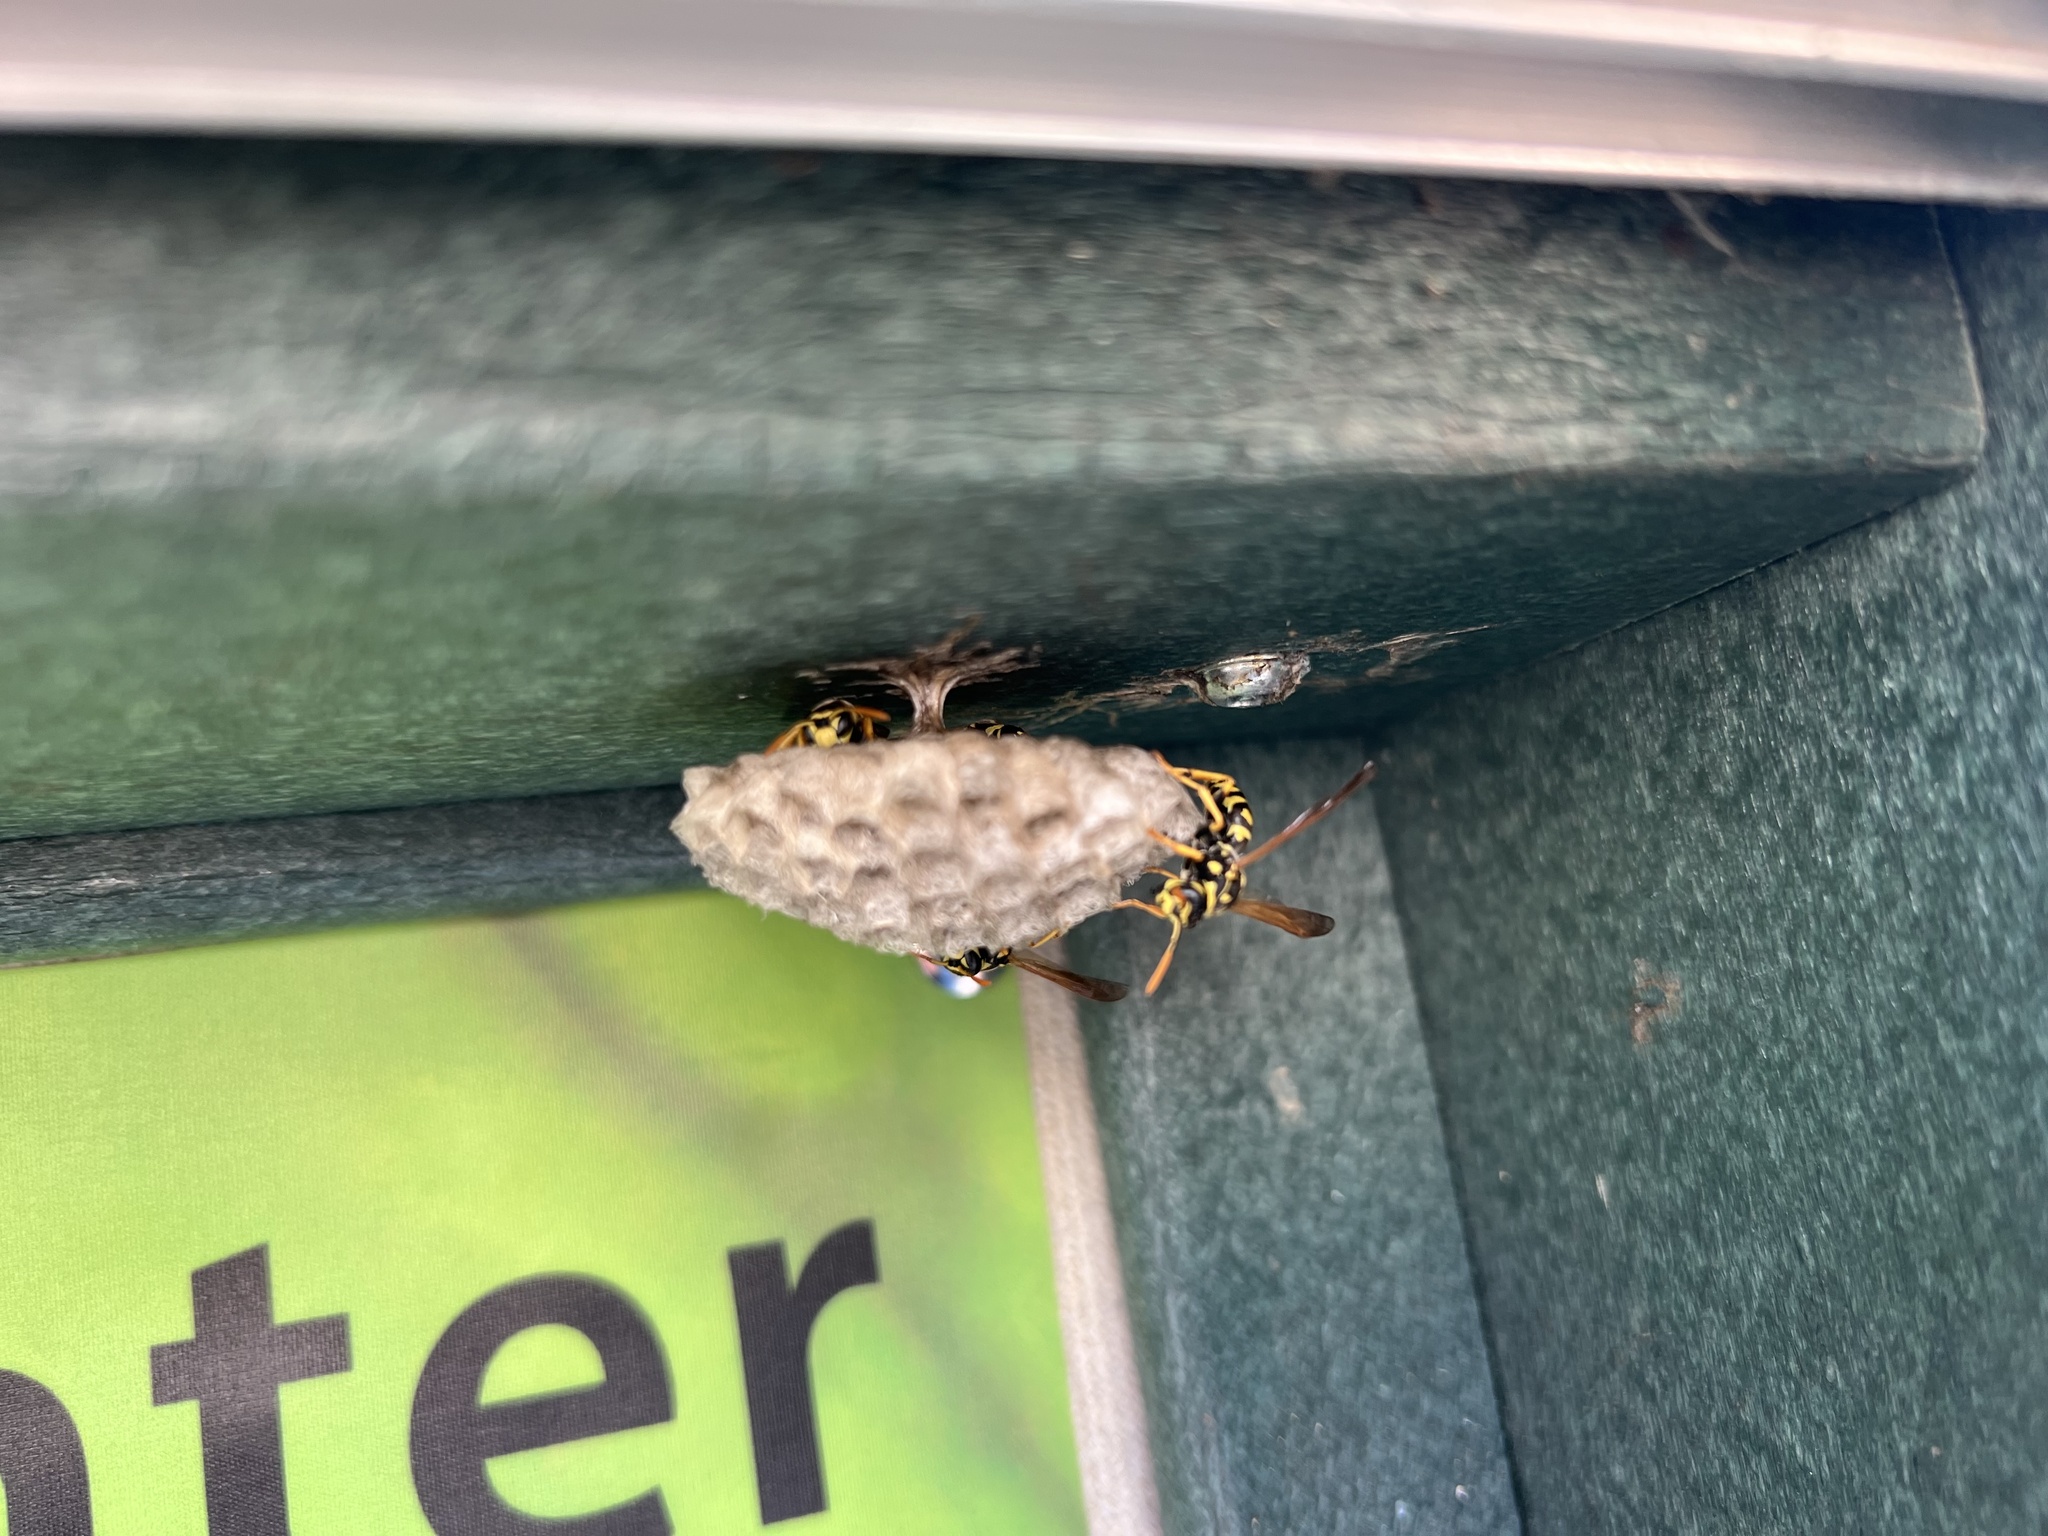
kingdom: Animalia
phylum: Arthropoda
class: Insecta
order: Hymenoptera
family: Eumenidae
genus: Polistes
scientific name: Polistes dominula
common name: Paper wasp
